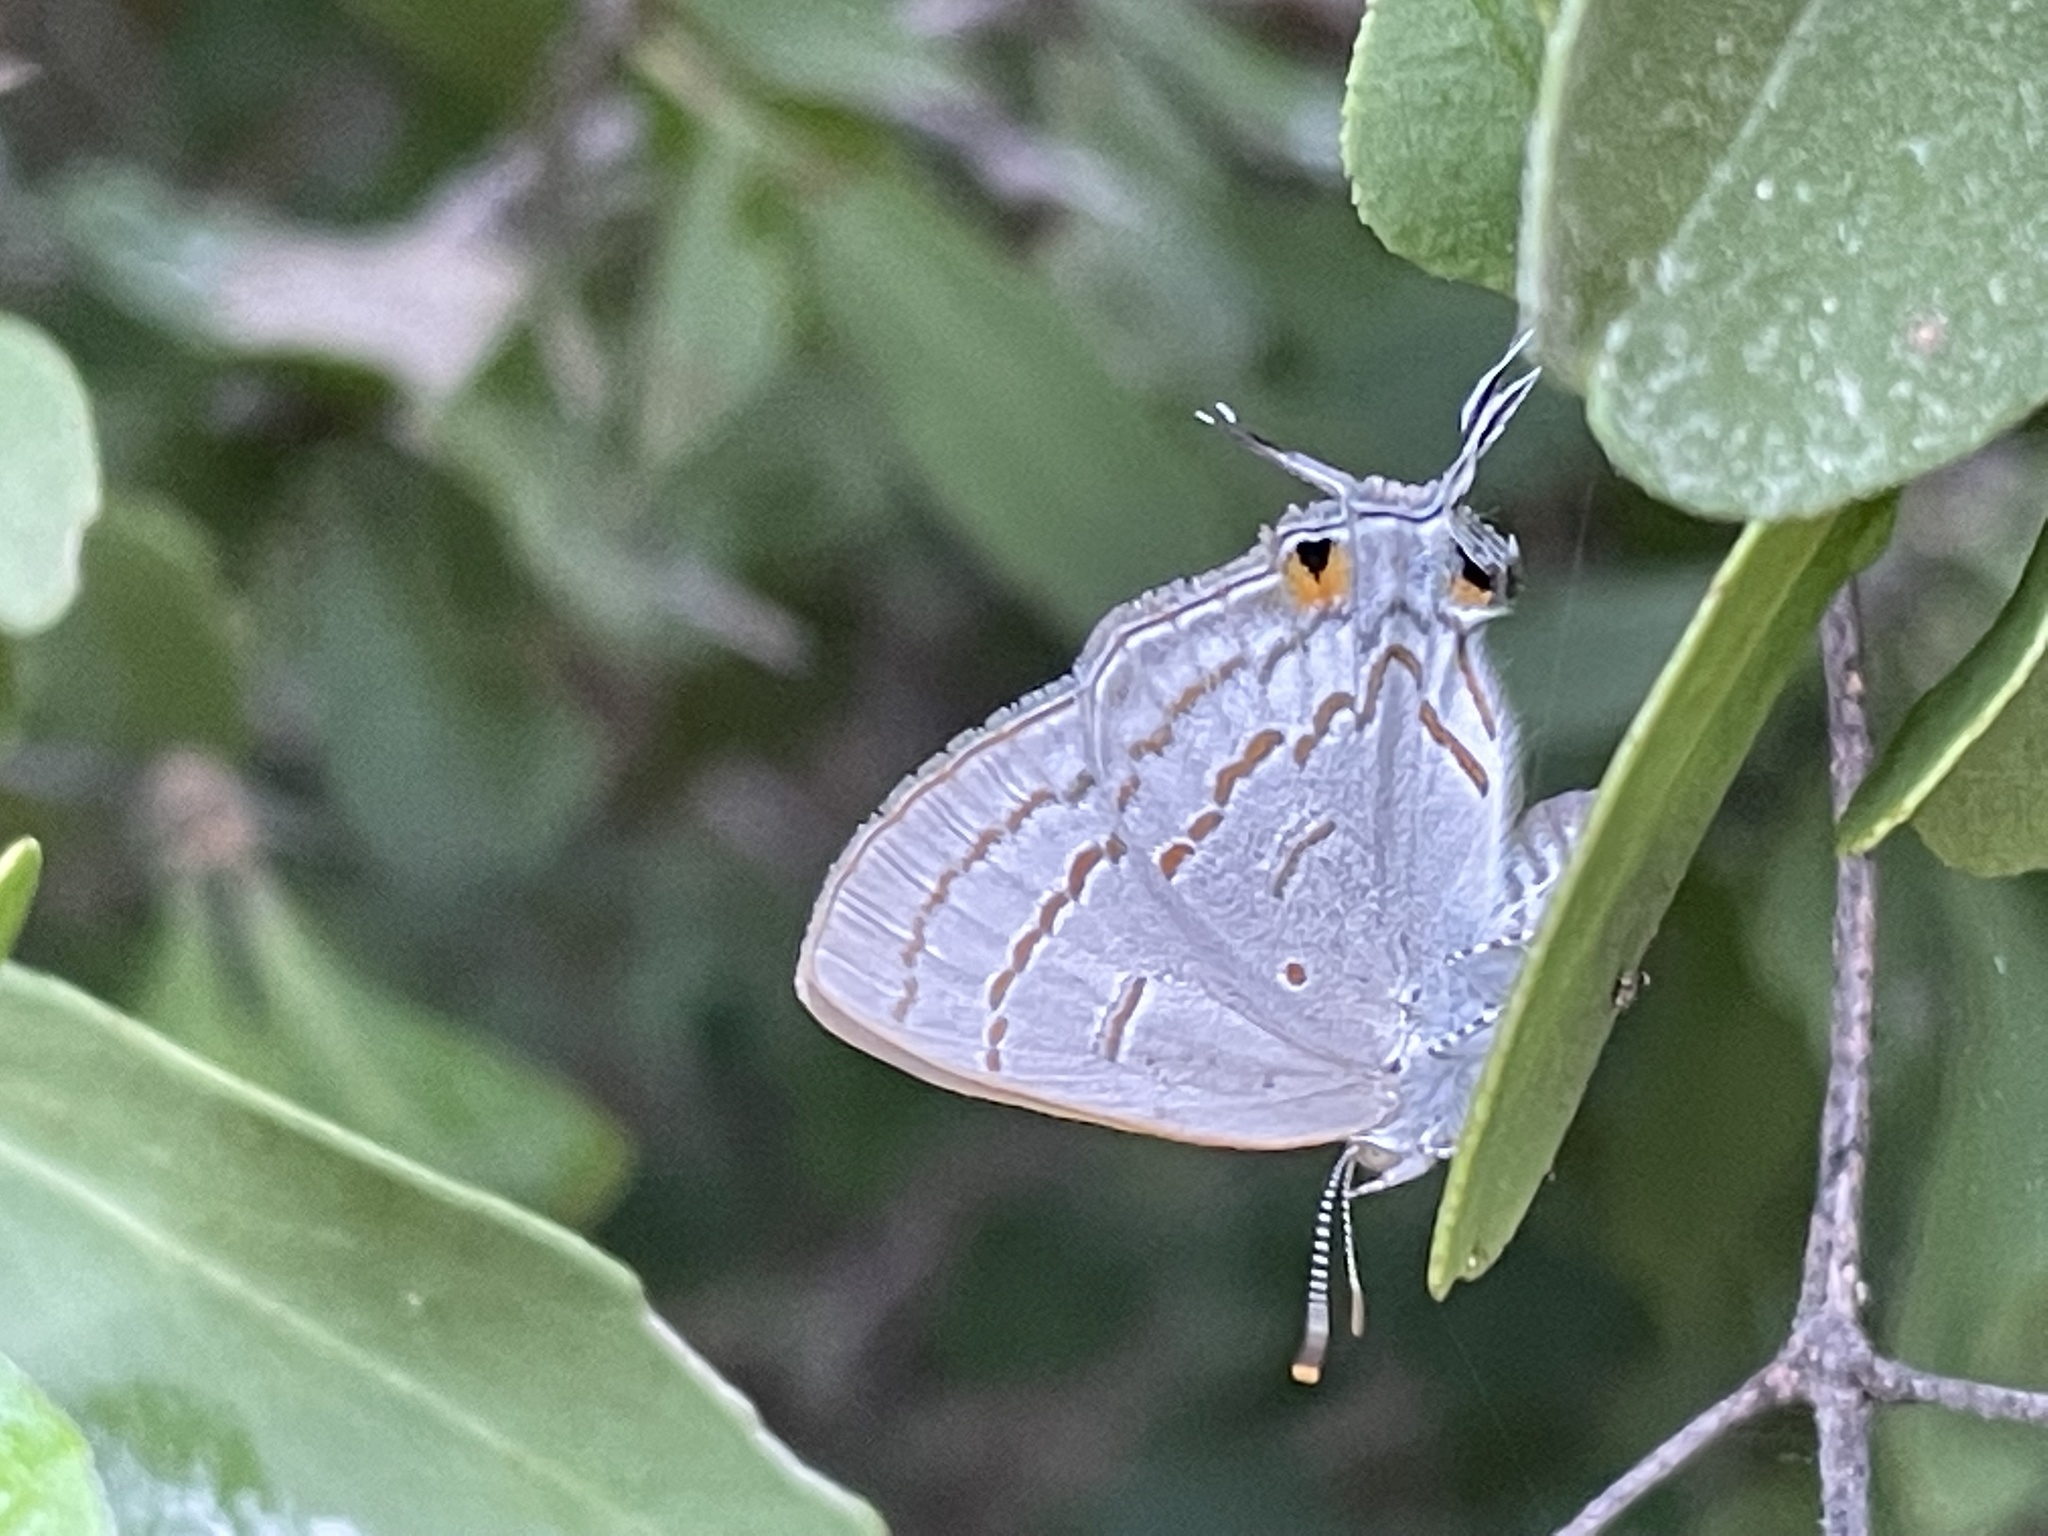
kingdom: Animalia
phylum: Arthropoda
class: Insecta
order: Lepidoptera
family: Lycaenidae
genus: Hypolycaena
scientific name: Hypolycaena philippus
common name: Common hairstreak
